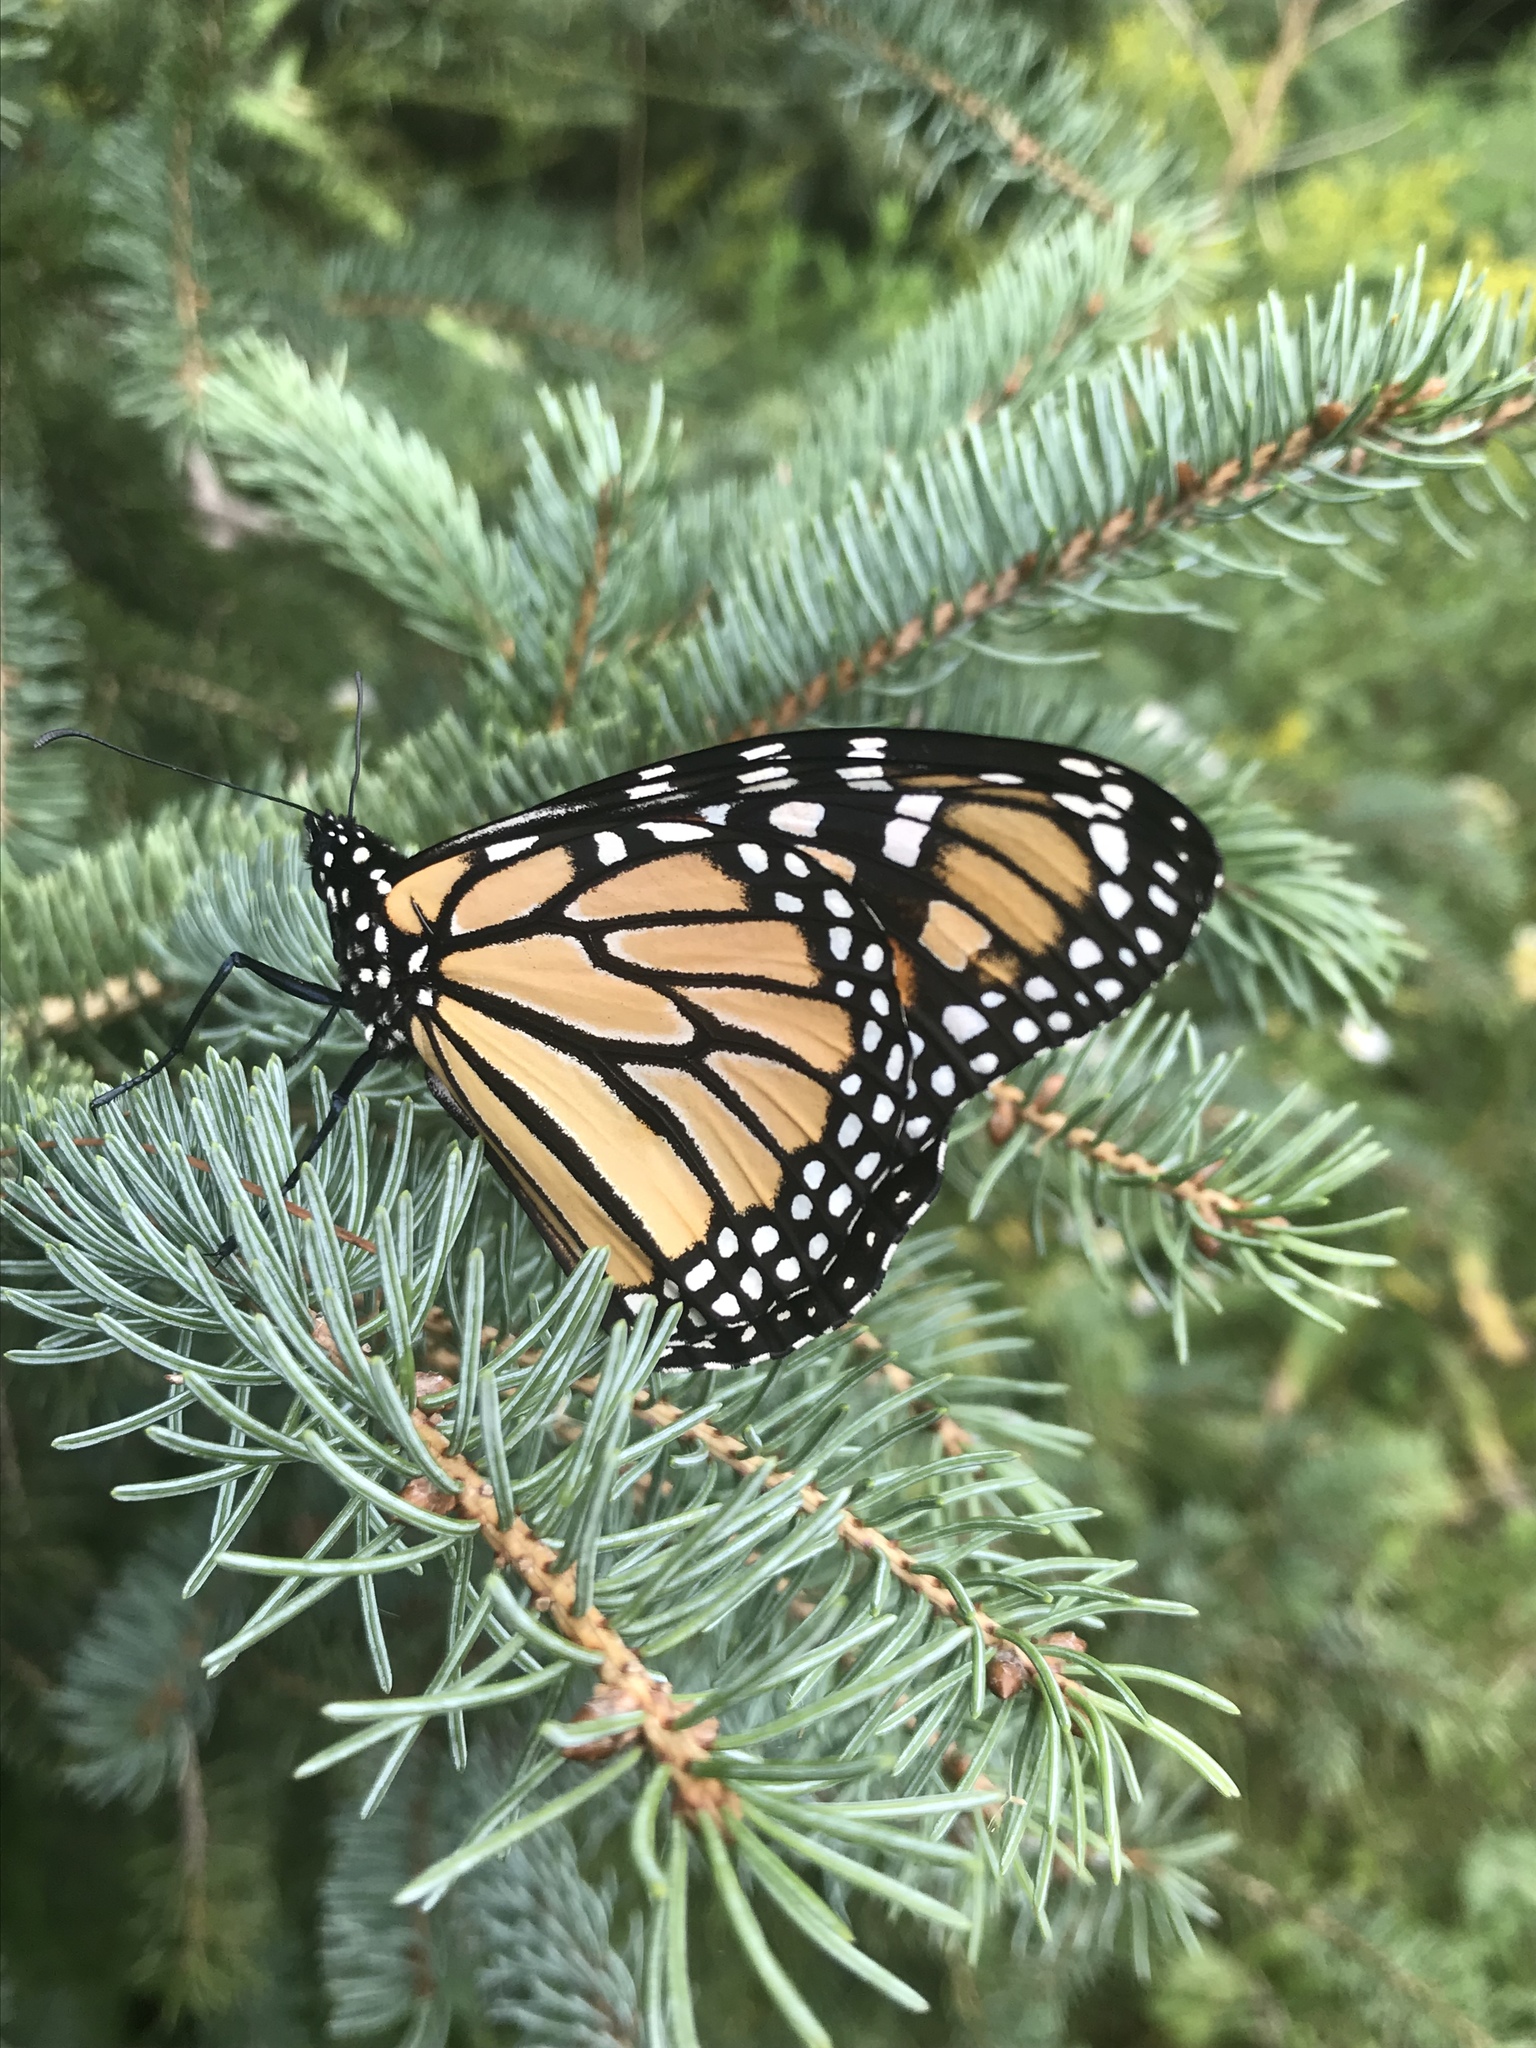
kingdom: Animalia
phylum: Arthropoda
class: Insecta
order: Lepidoptera
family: Nymphalidae
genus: Danaus
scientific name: Danaus plexippus
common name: Monarch
